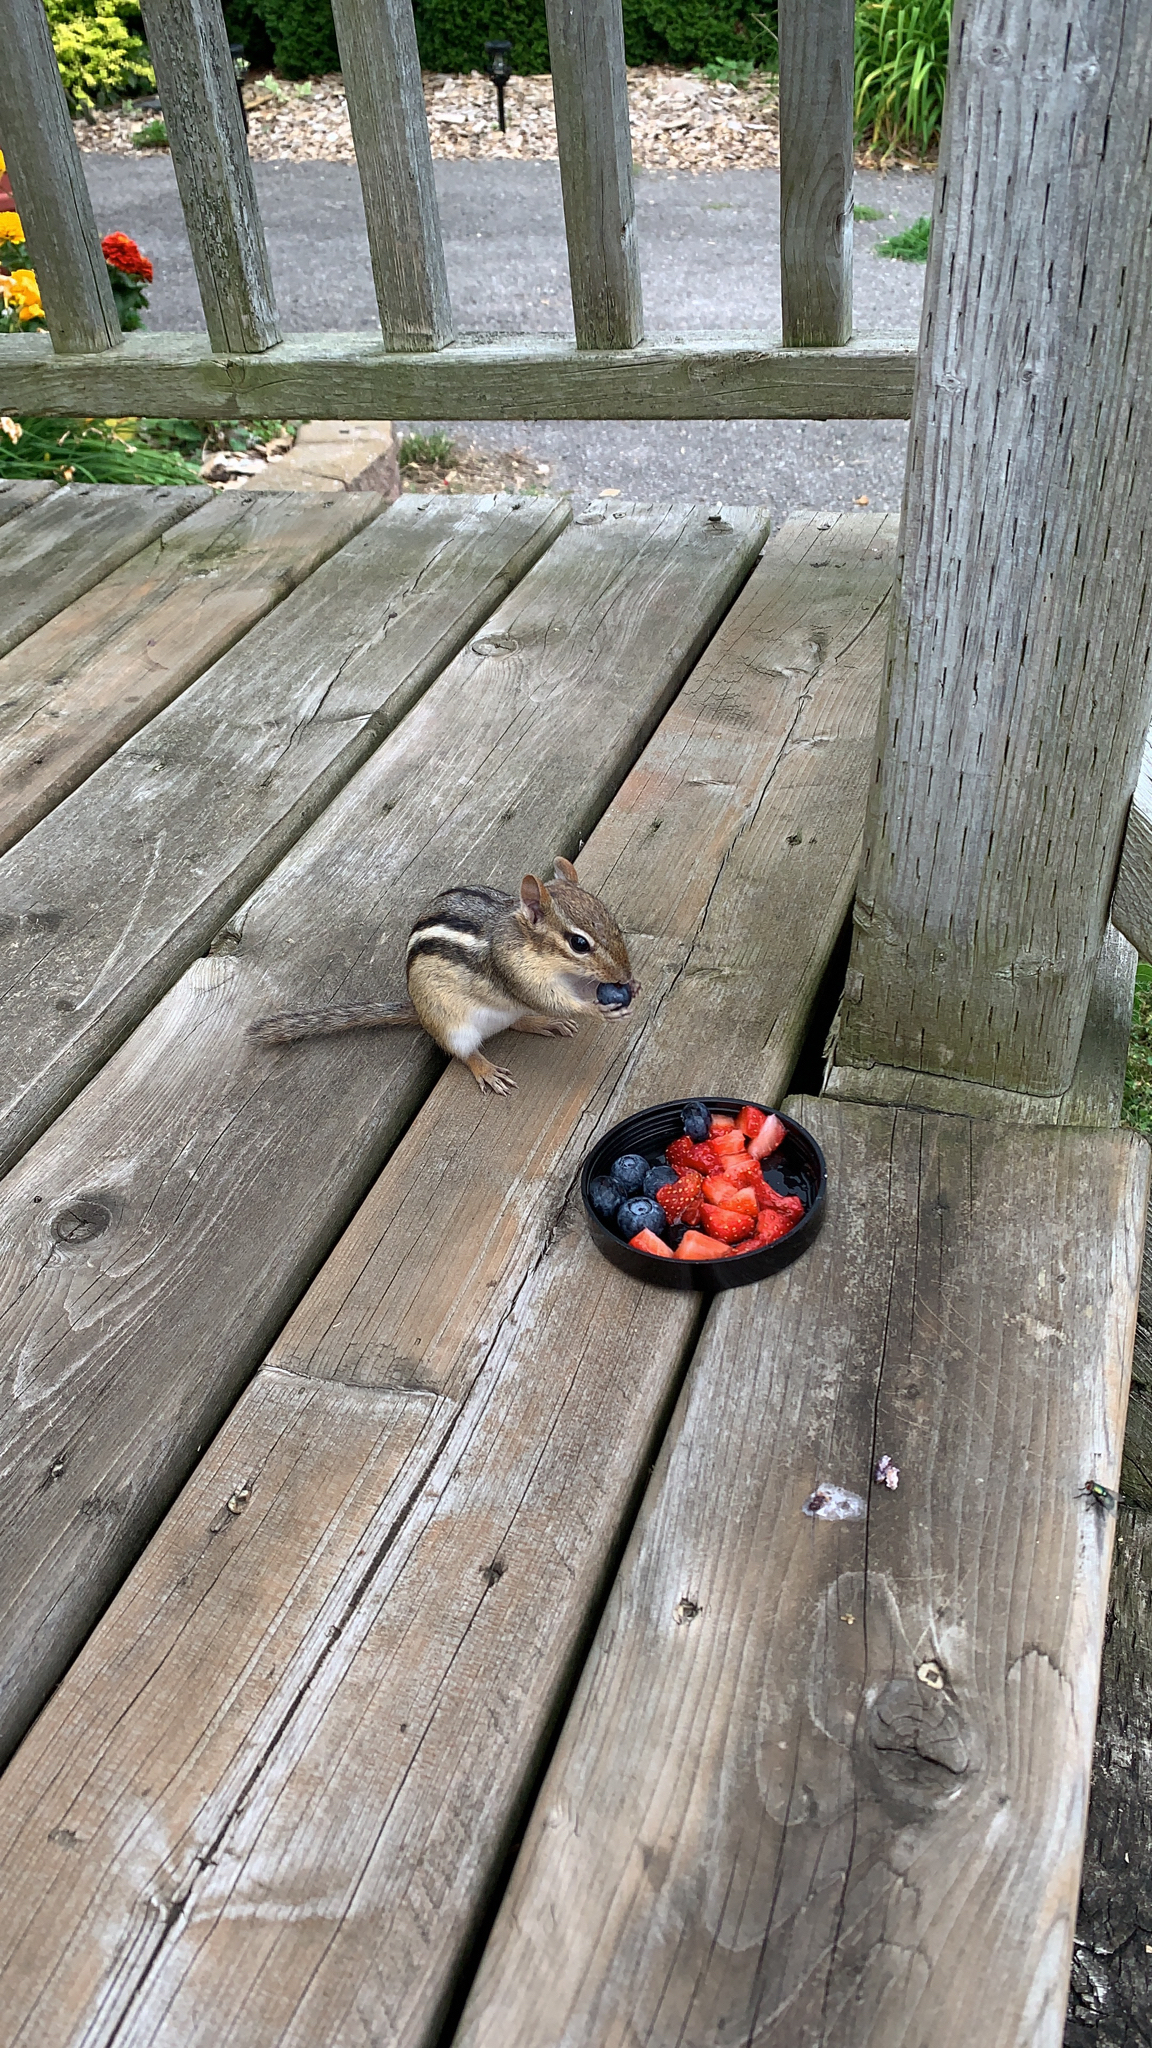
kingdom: Animalia
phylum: Chordata
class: Mammalia
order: Rodentia
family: Sciuridae
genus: Tamias
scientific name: Tamias striatus
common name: Eastern chipmunk
